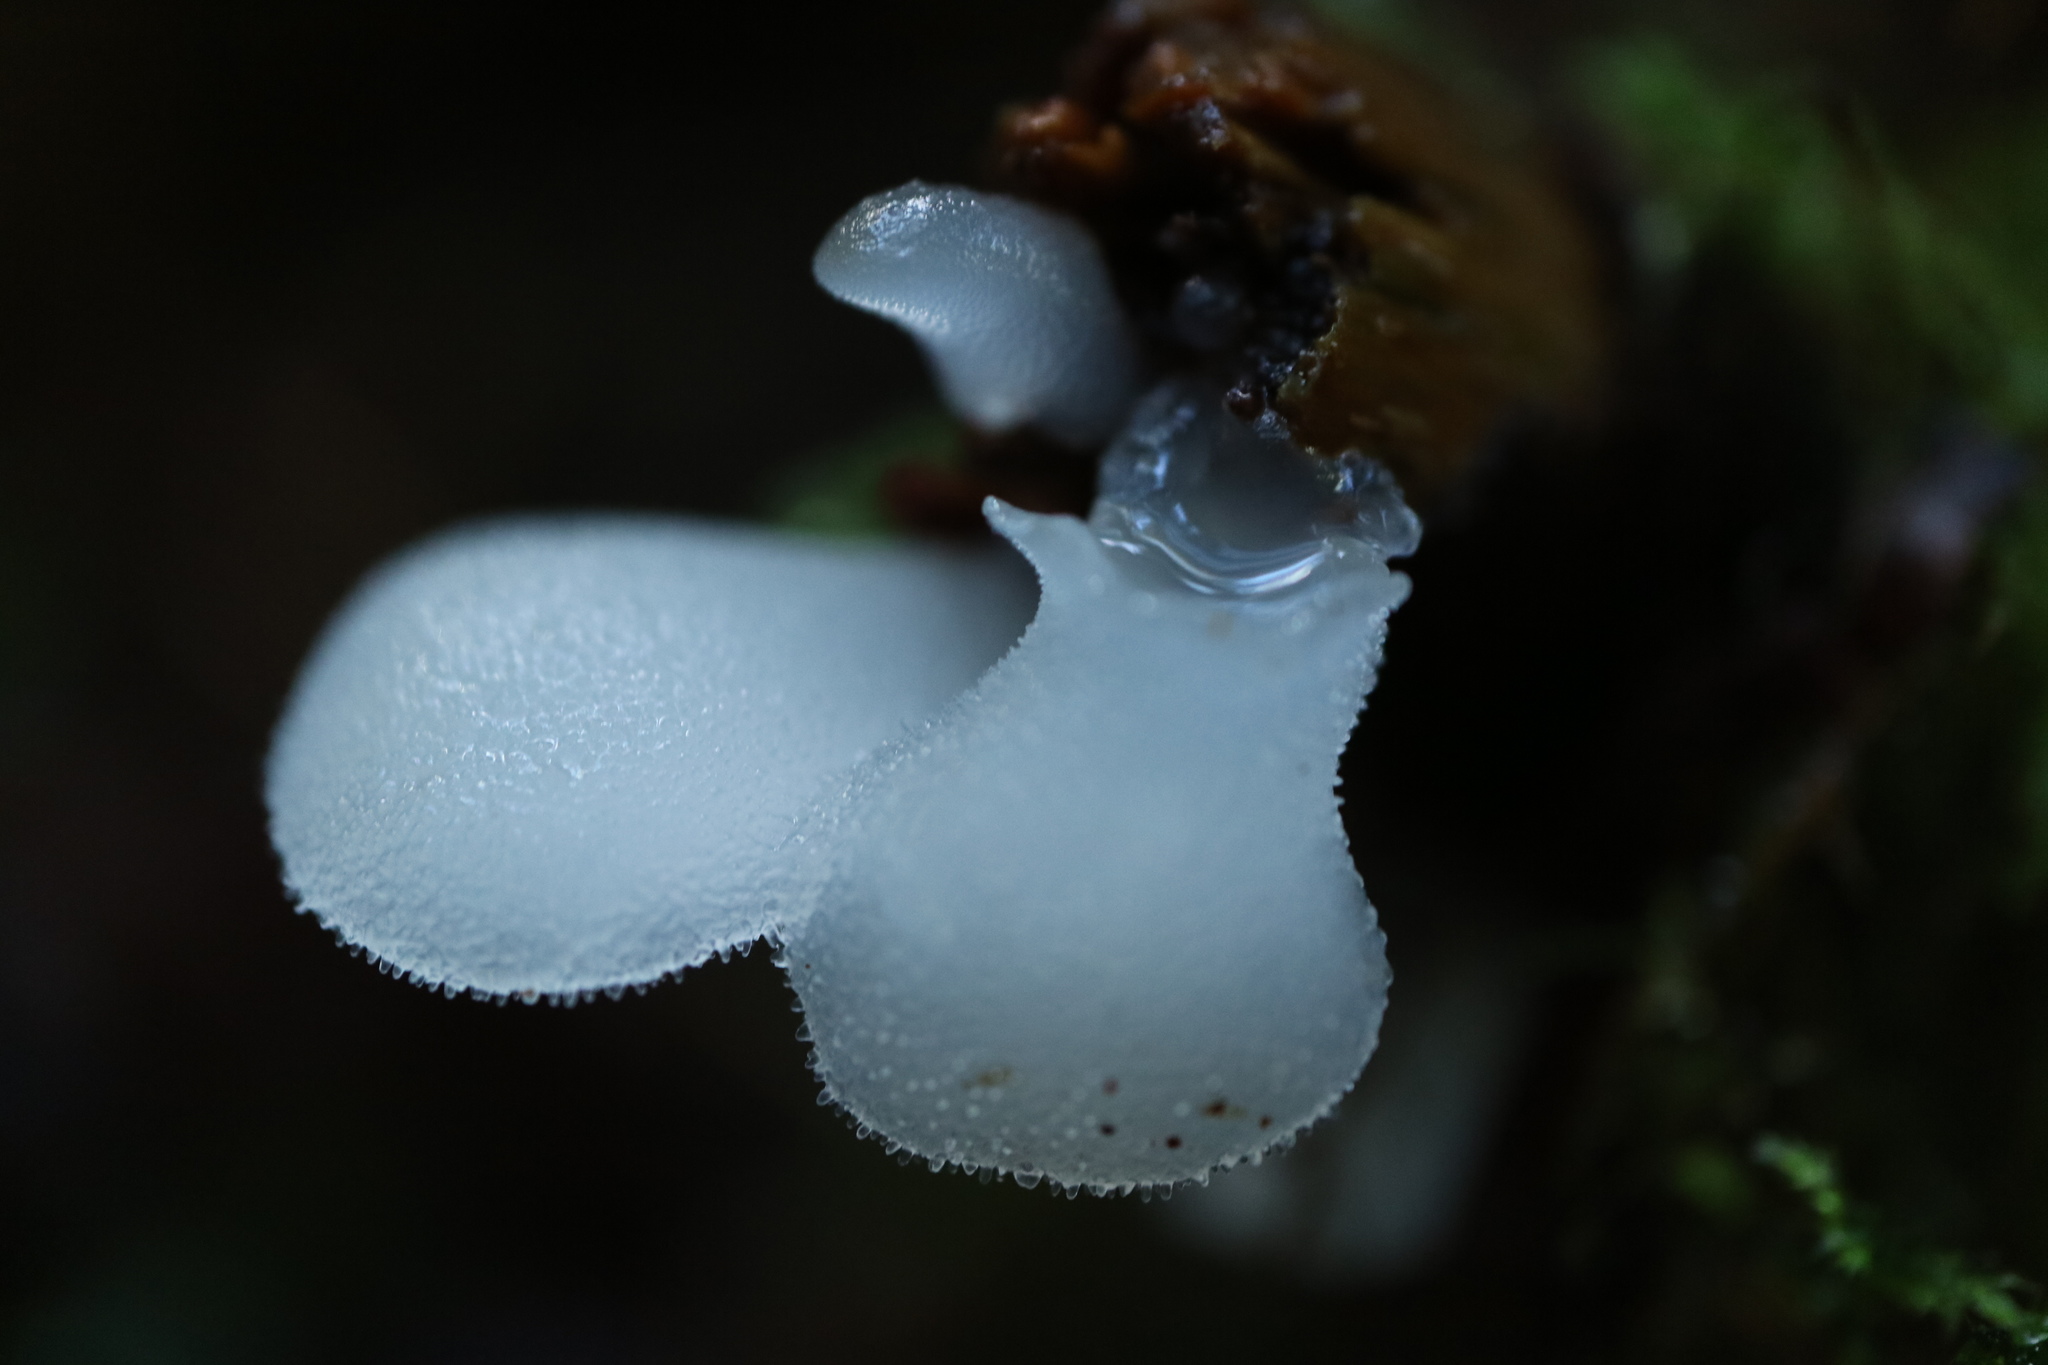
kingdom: Fungi
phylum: Basidiomycota
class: Agaricomycetes
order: Auriculariales
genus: Pseudohydnum
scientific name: Pseudohydnum gelatinosum
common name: Jelly tongue
